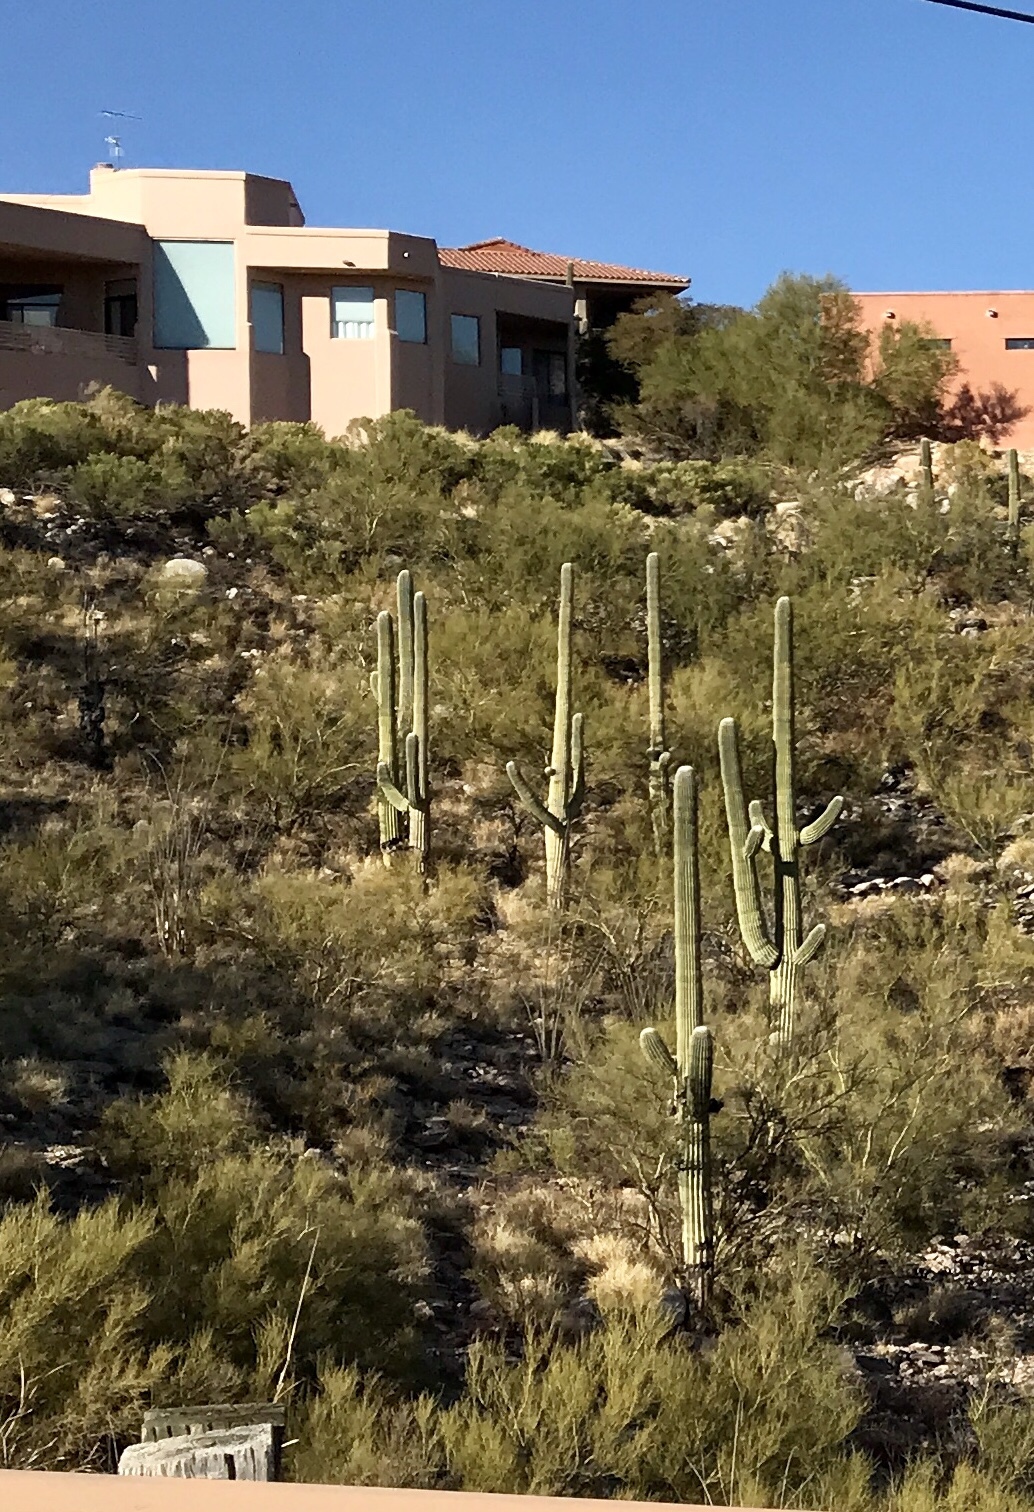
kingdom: Plantae
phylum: Tracheophyta
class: Magnoliopsida
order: Caryophyllales
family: Cactaceae
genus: Carnegiea
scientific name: Carnegiea gigantea
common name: Saguaro
